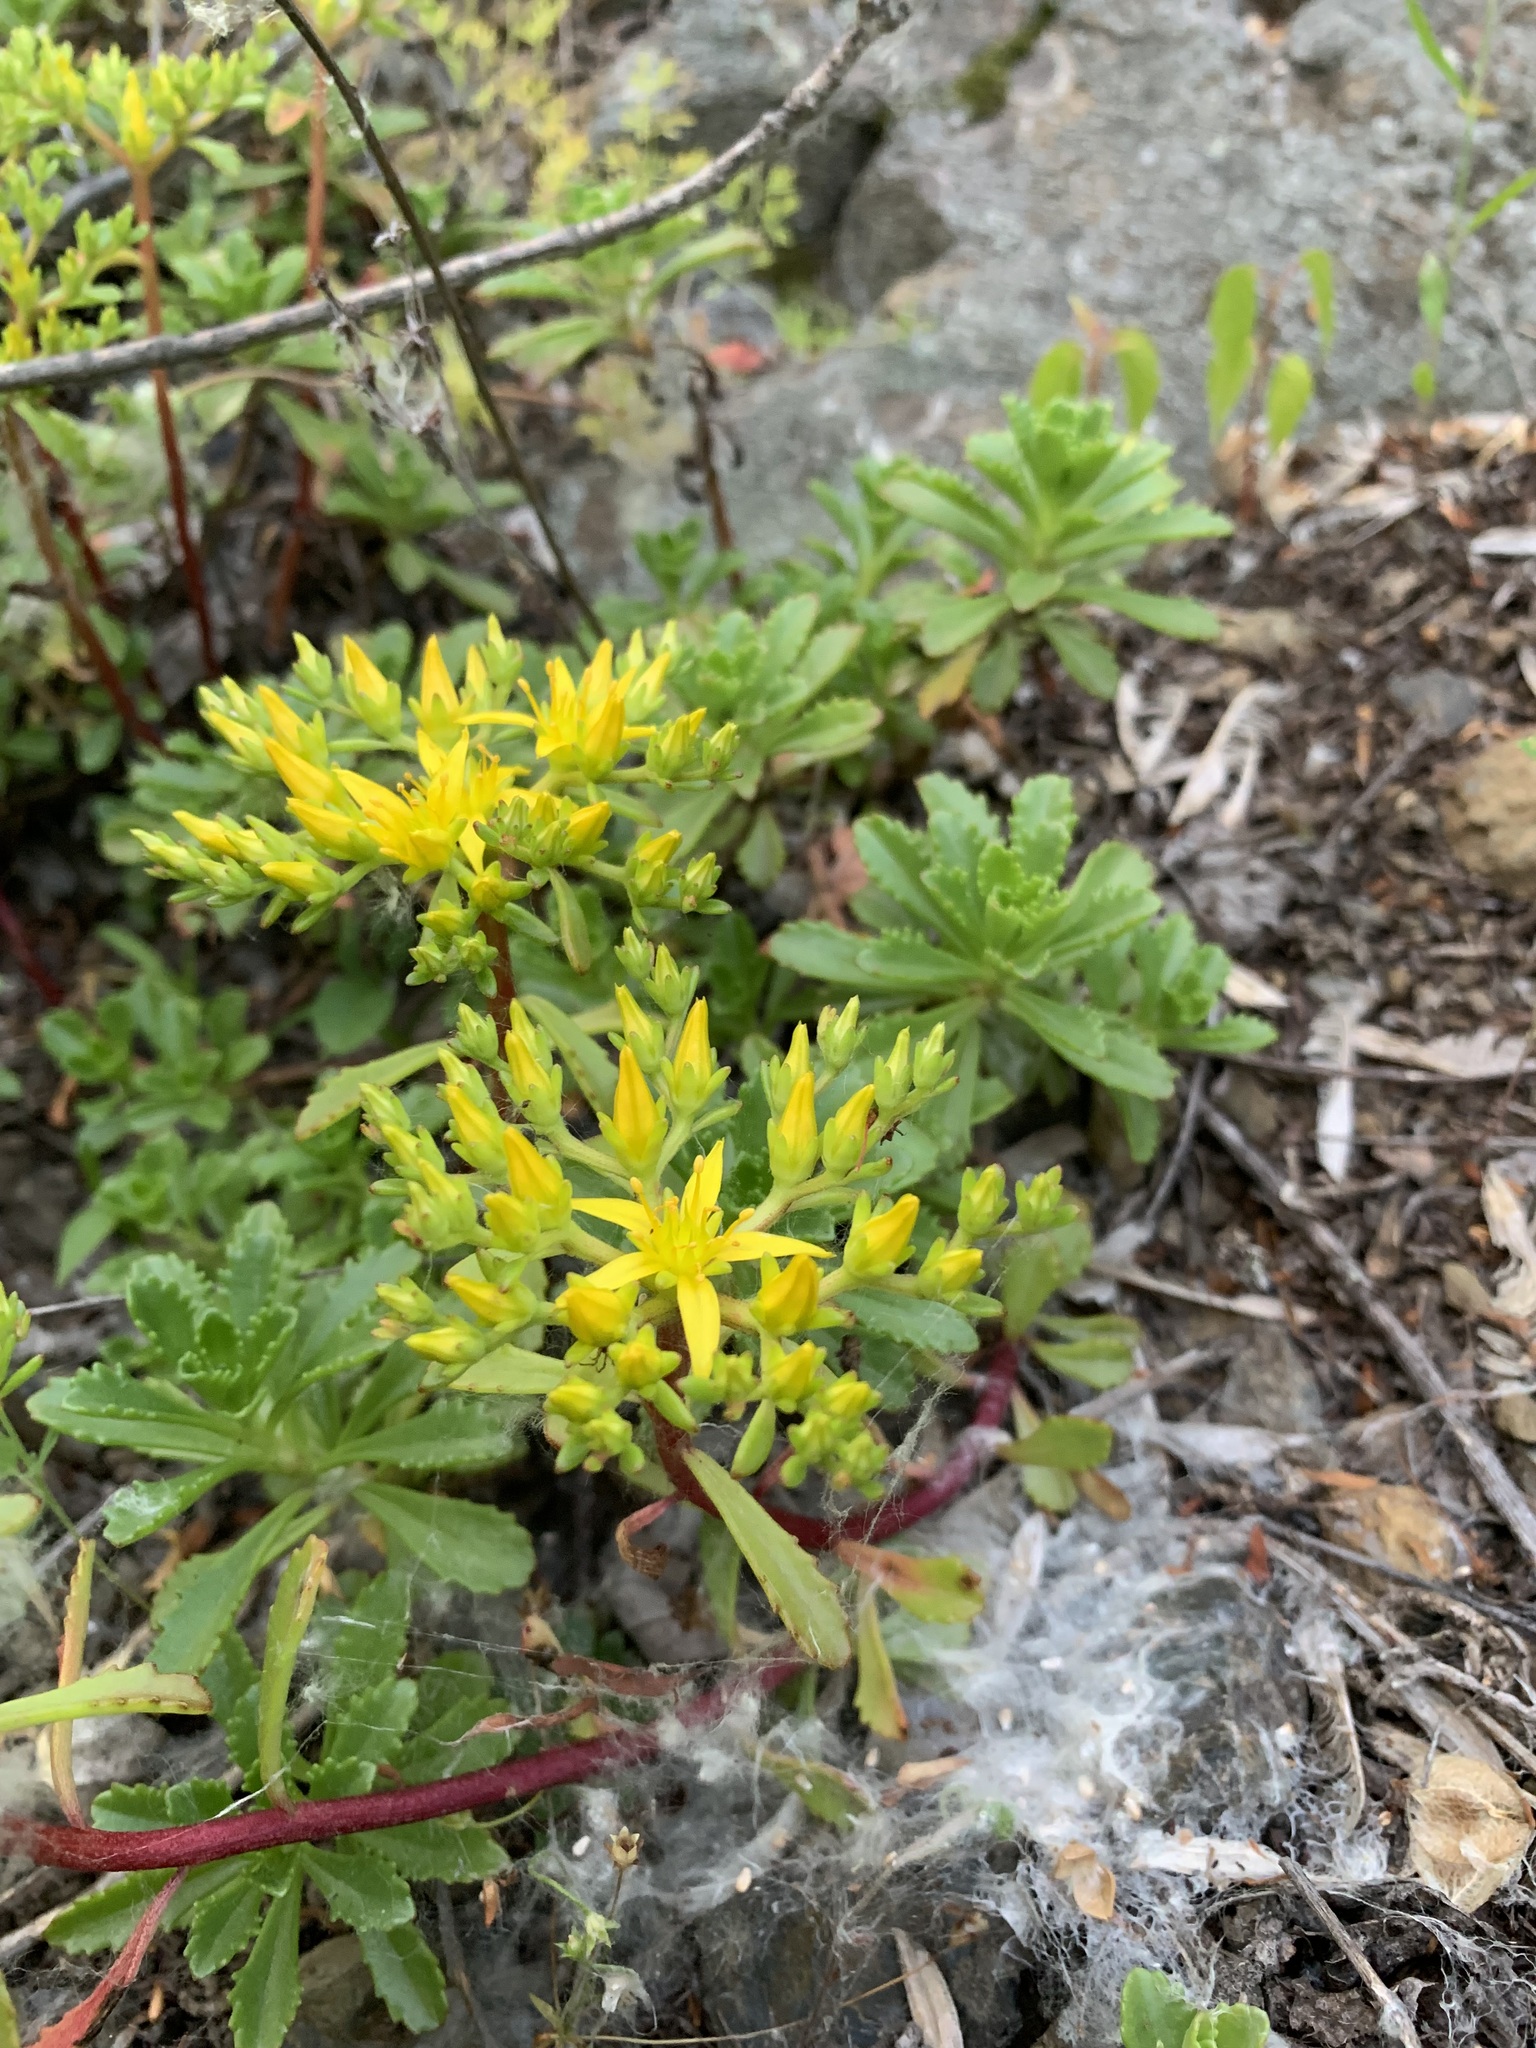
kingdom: Plantae
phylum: Tracheophyta
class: Magnoliopsida
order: Saxifragales
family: Crassulaceae
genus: Phedimus
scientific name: Phedimus hybridus
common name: Hybrid stonecrop
